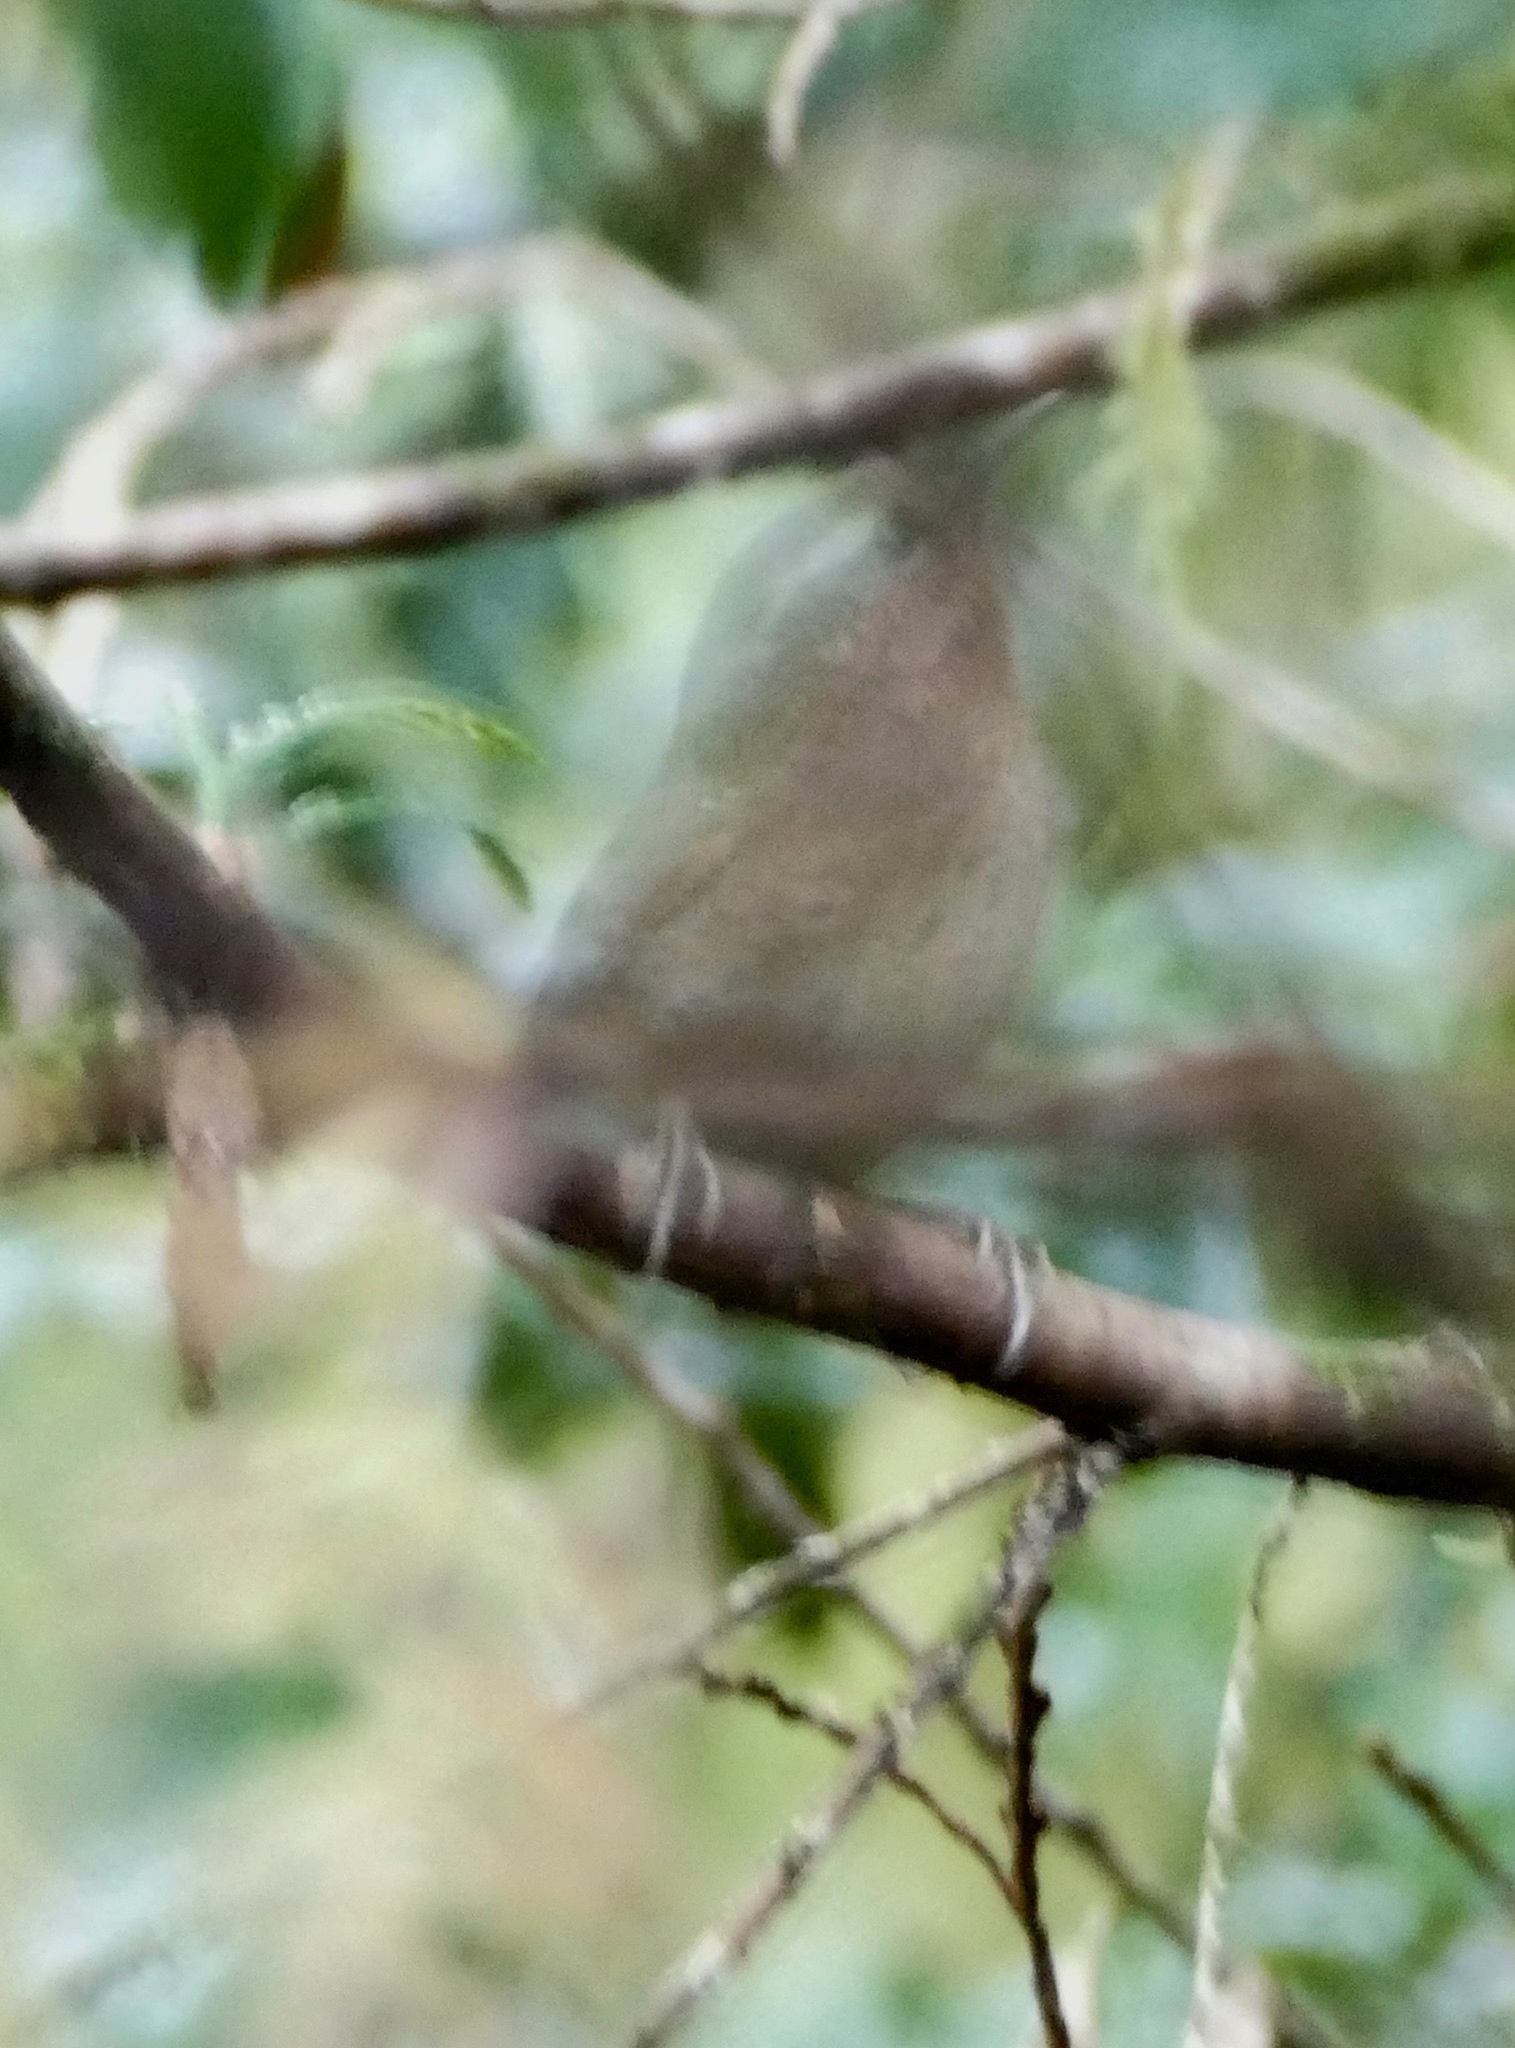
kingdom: Animalia
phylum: Chordata
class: Aves
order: Passeriformes
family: Troglodytidae
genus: Troglodytes
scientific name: Troglodytes pacificus
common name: Pacific wren
